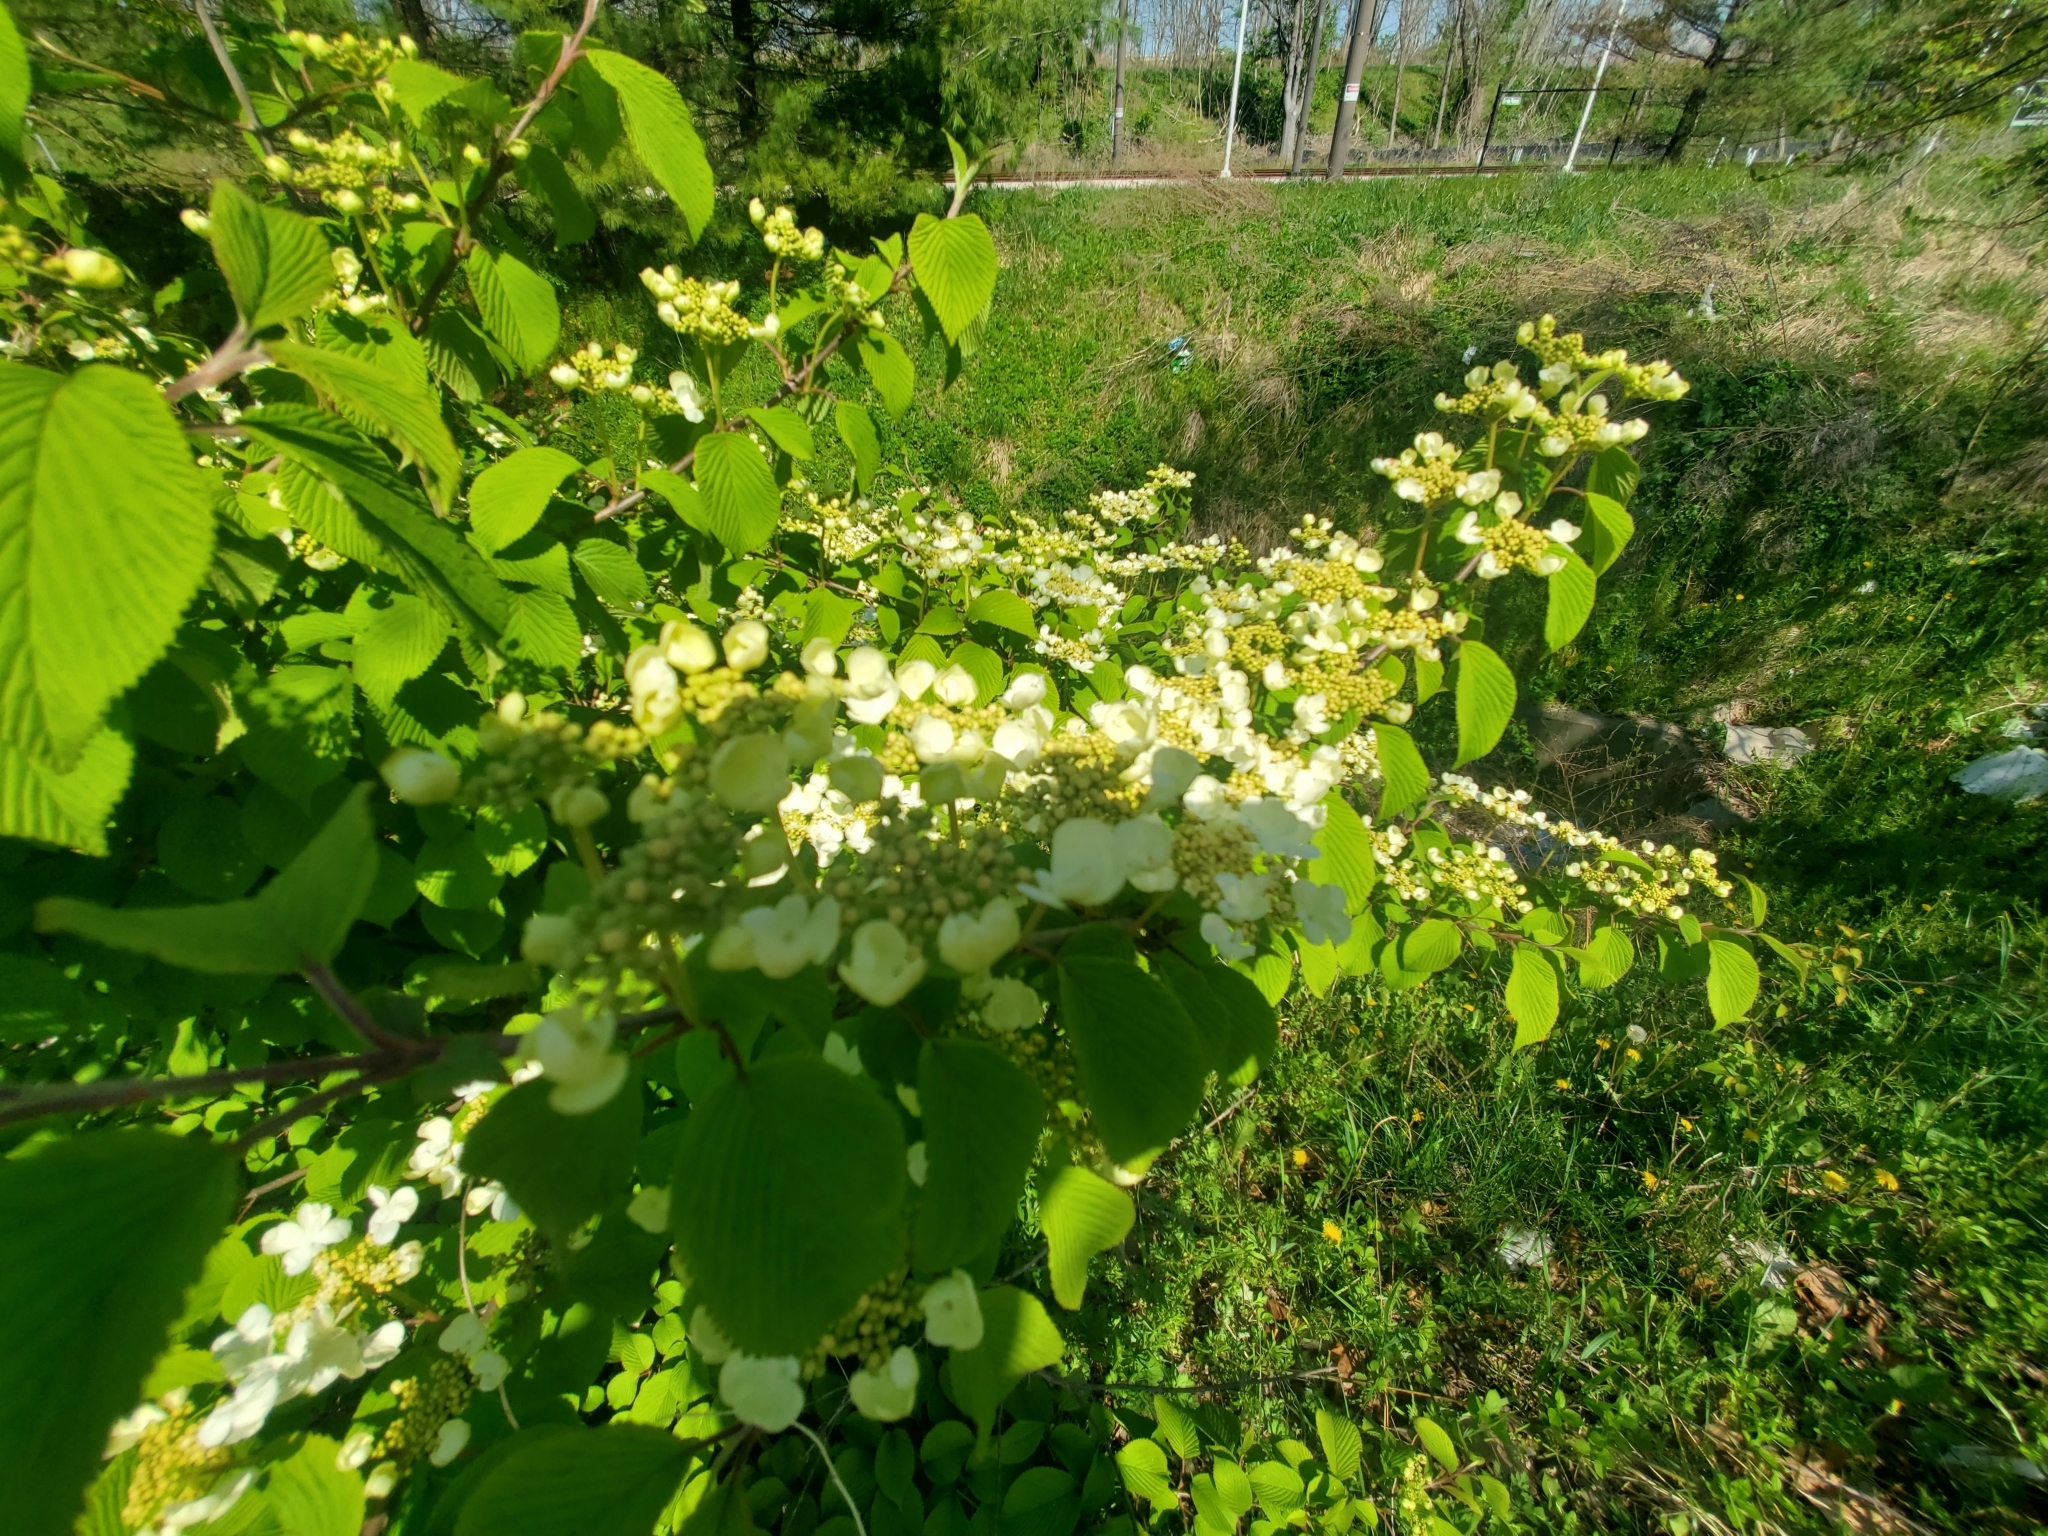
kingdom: Plantae
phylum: Tracheophyta
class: Magnoliopsida
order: Dipsacales
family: Viburnaceae
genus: Viburnum
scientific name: Viburnum plicatum
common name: Japanese snowball
